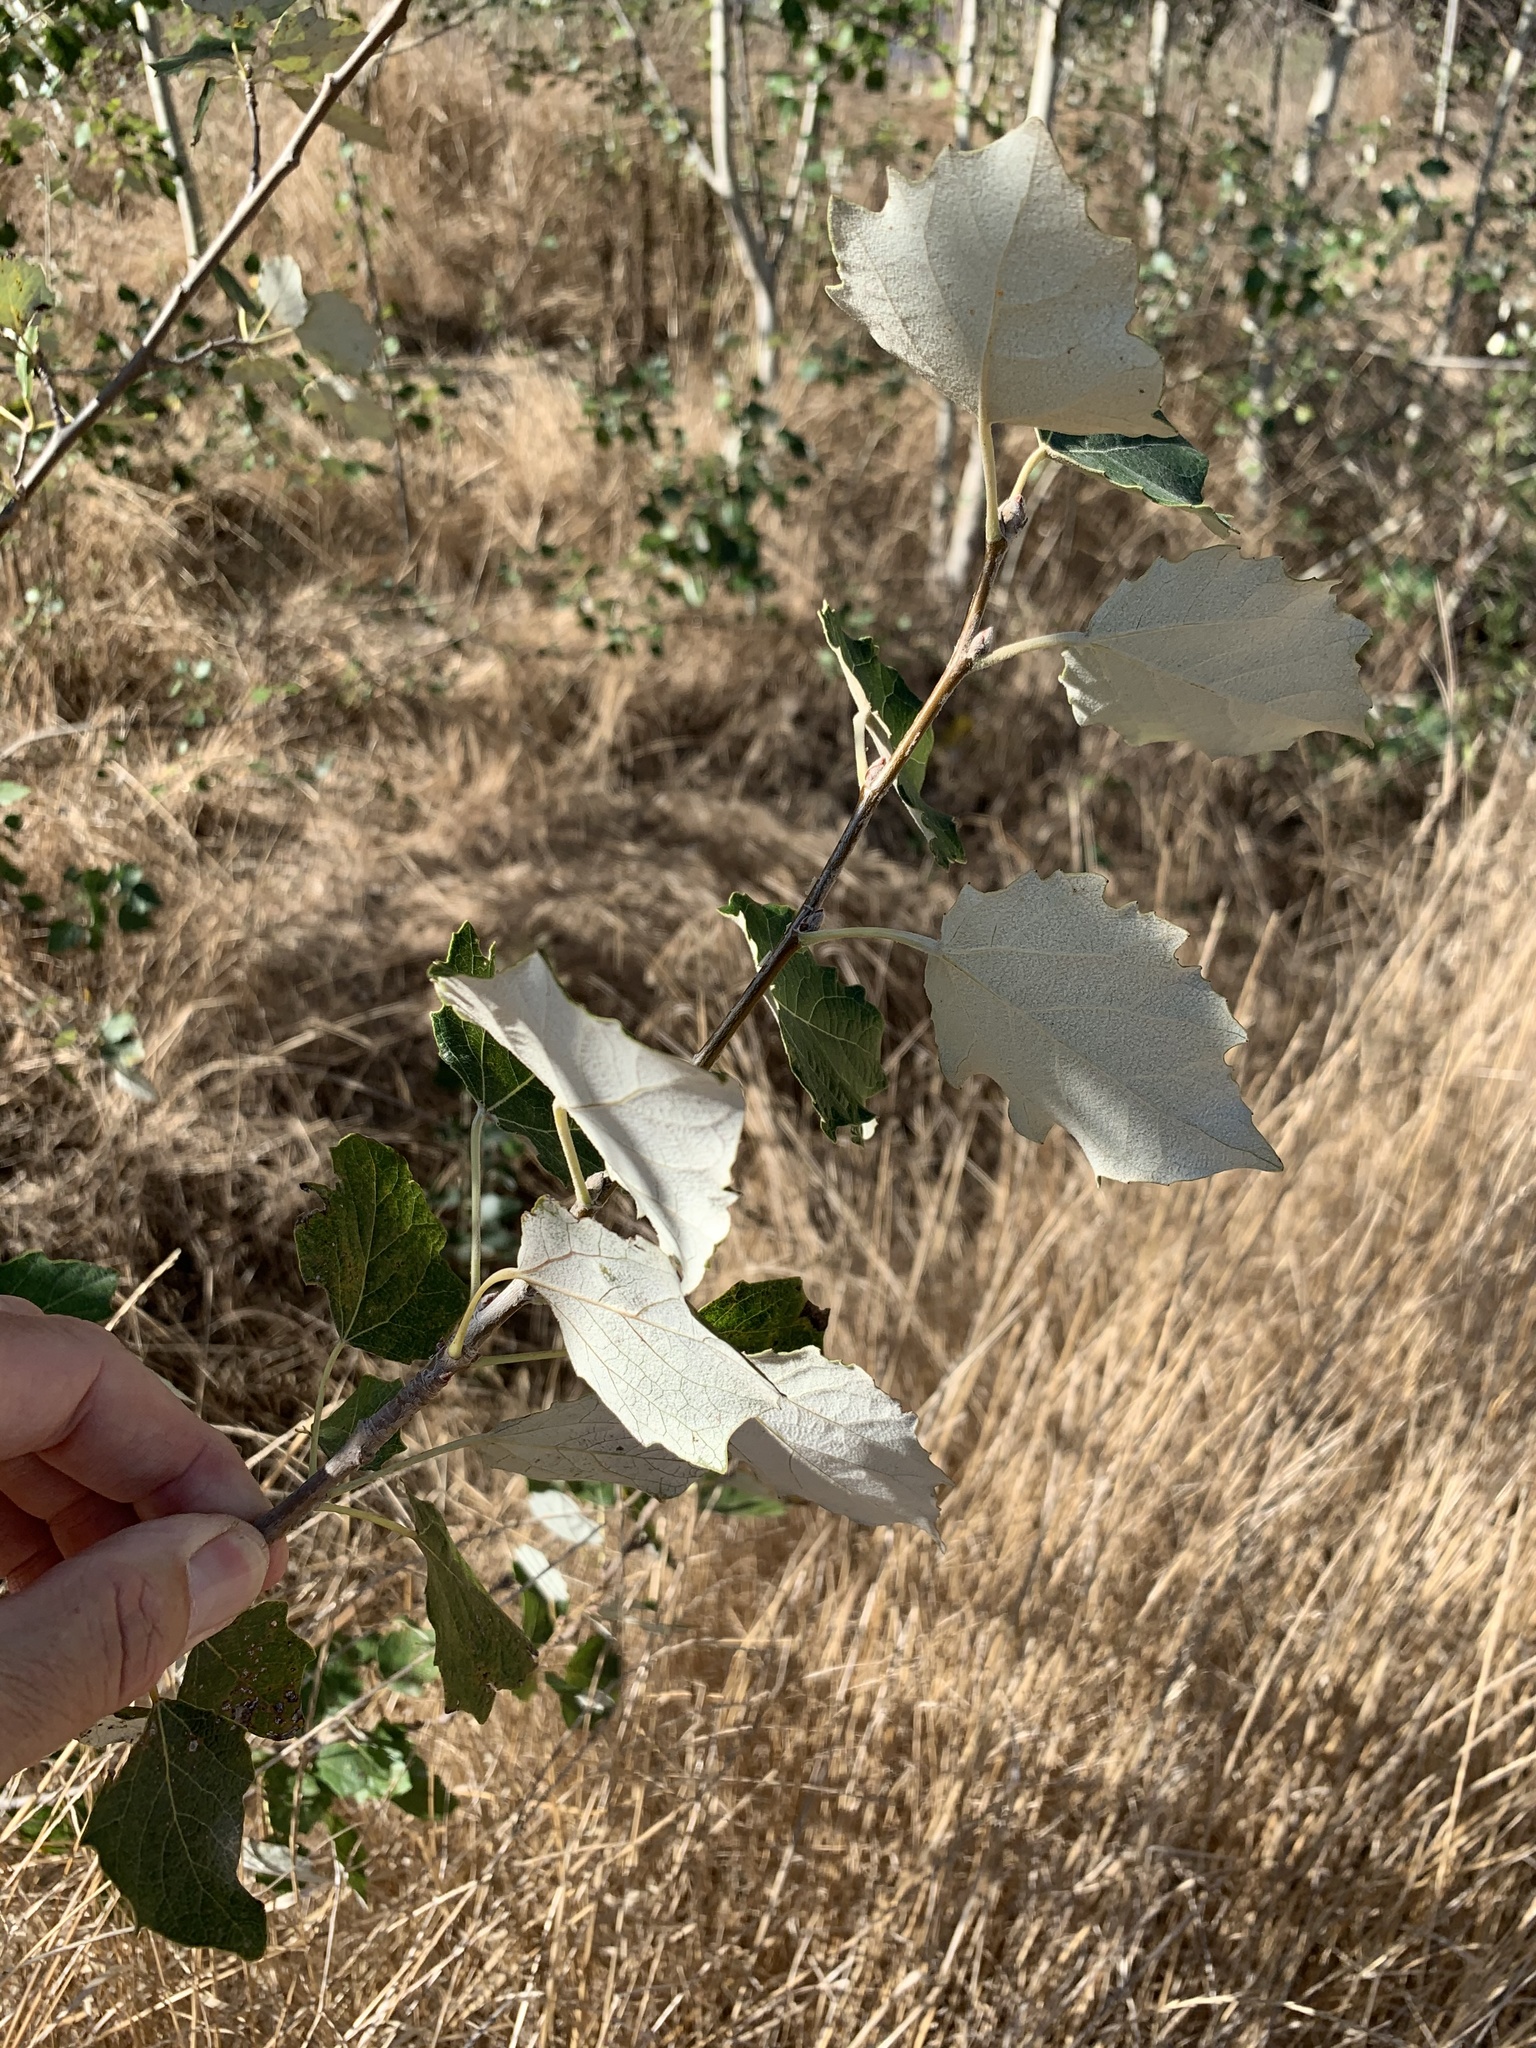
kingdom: Plantae
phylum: Tracheophyta
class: Magnoliopsida
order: Malpighiales
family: Salicaceae
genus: Populus
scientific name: Populus canescens
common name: Gray poplar
